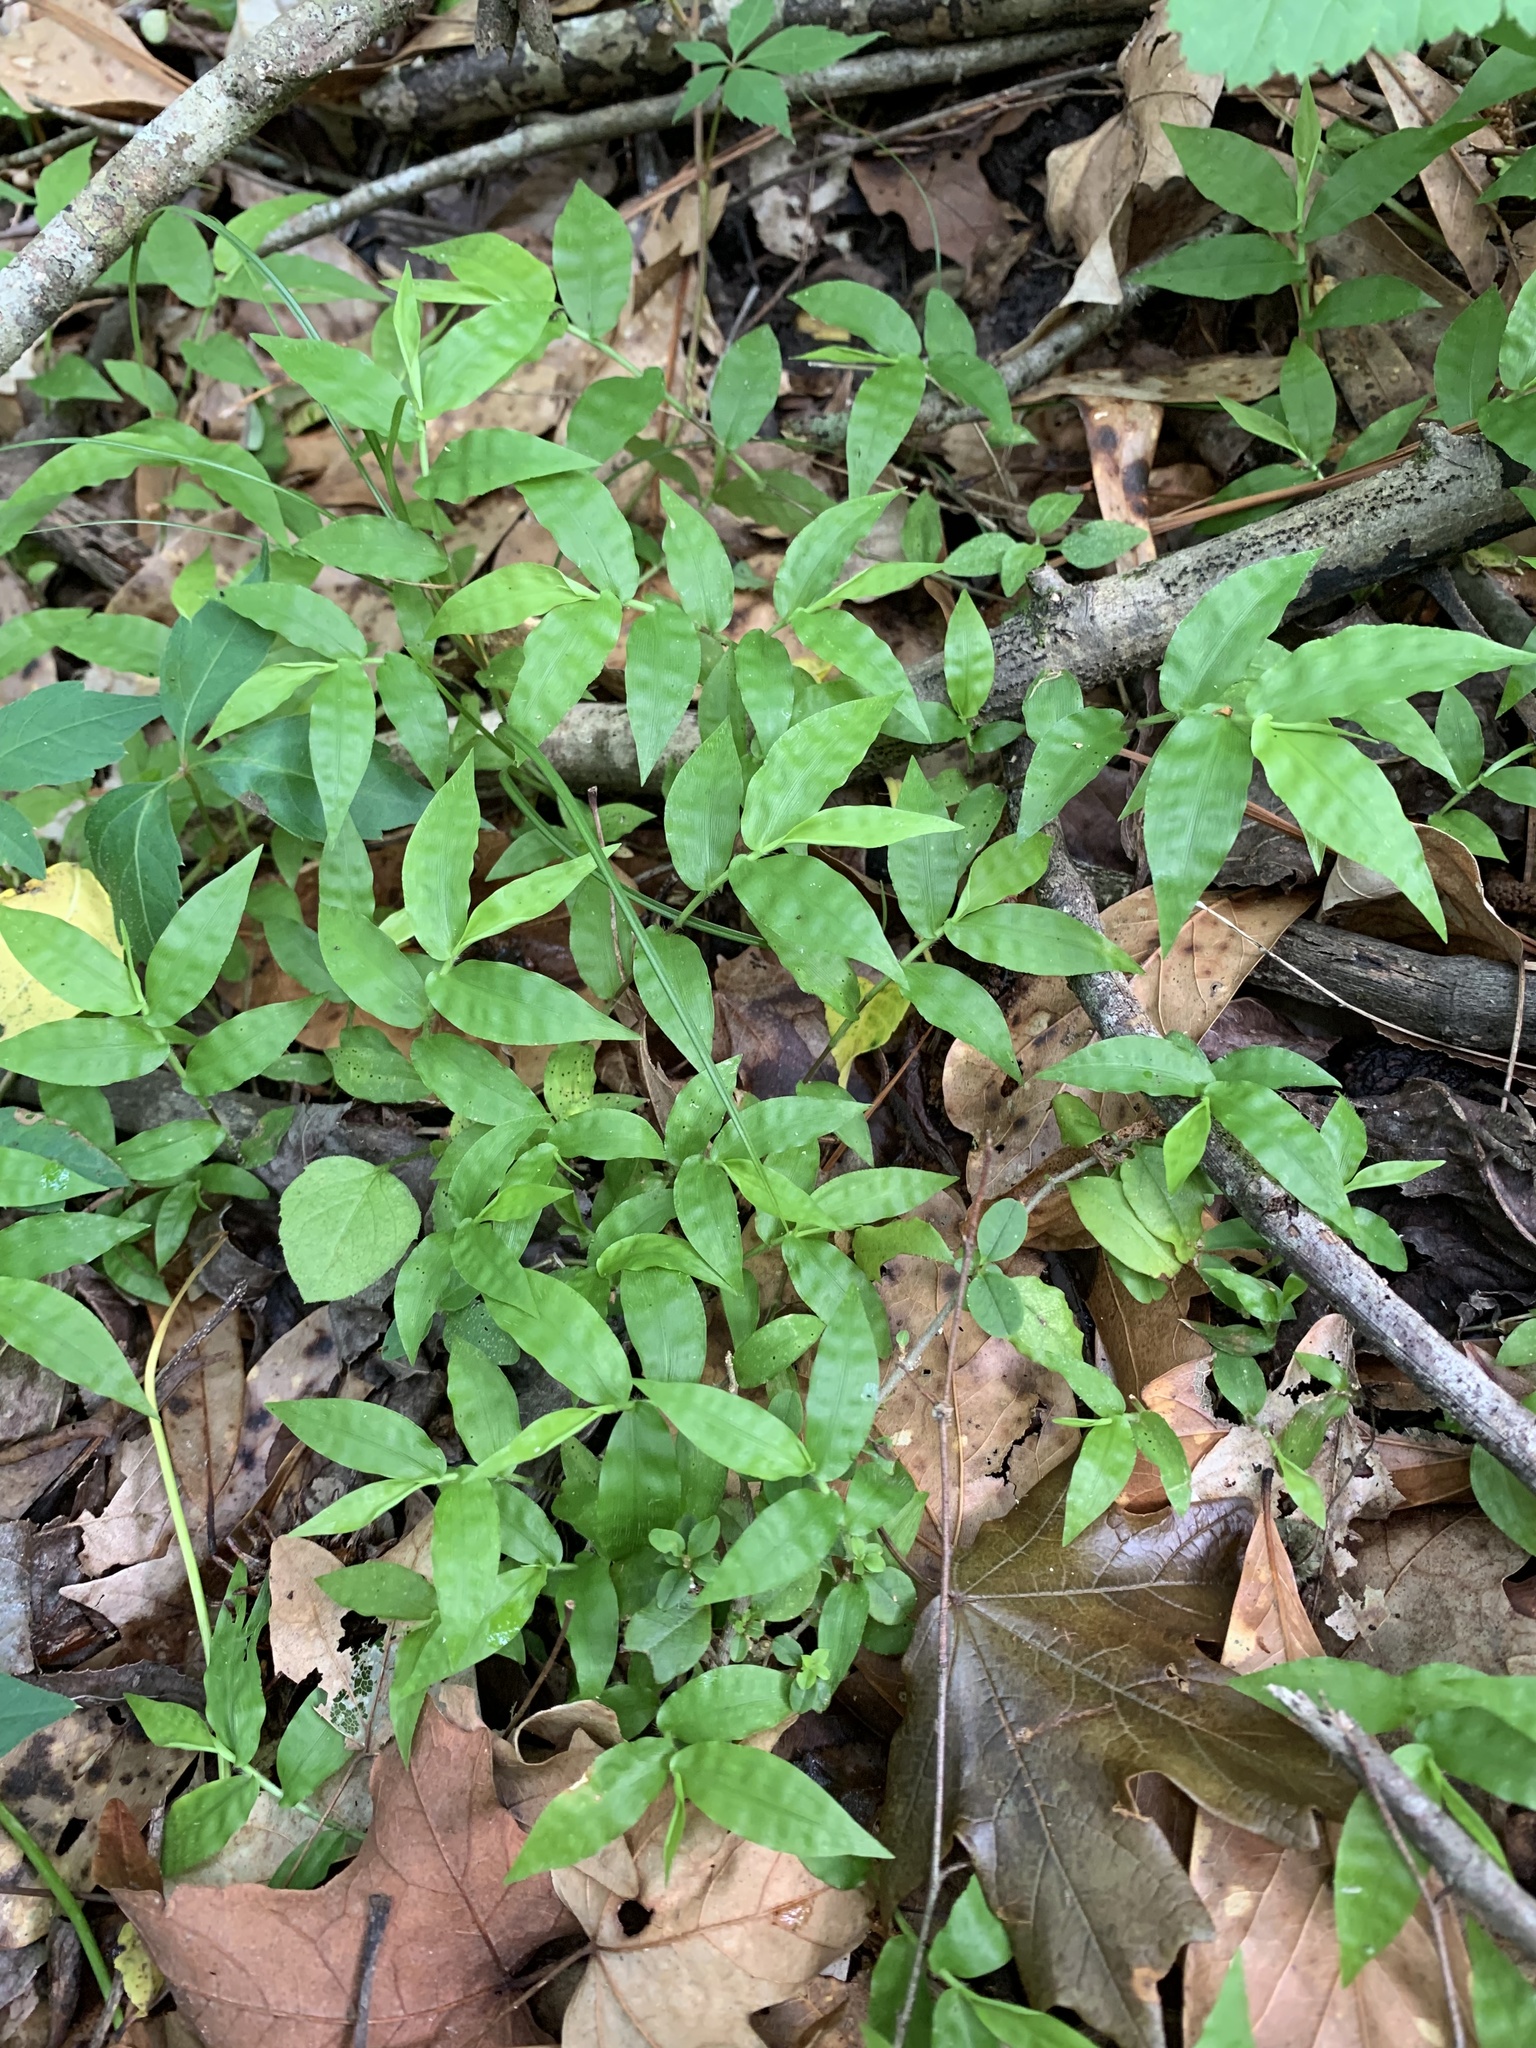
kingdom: Plantae
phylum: Tracheophyta
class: Liliopsida
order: Poales
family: Poaceae
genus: Oplismenus
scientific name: Oplismenus hirtellus
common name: Basketgrass
